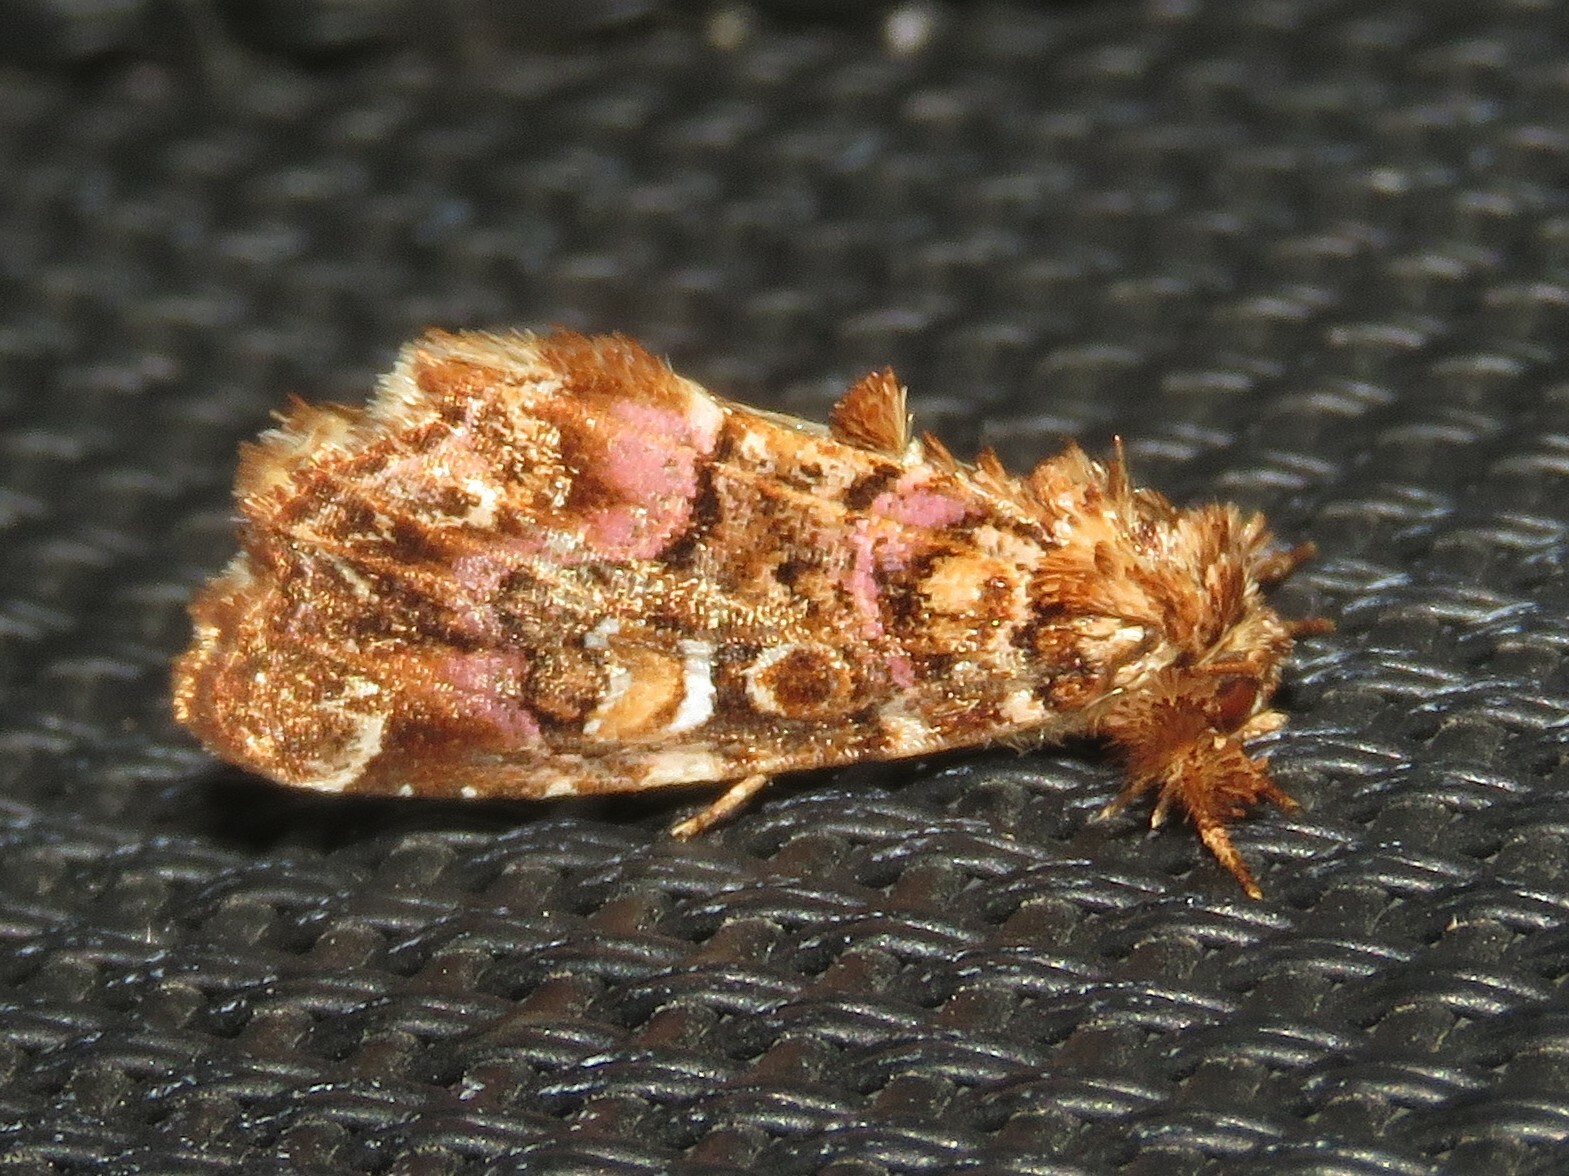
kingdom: Animalia
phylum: Arthropoda
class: Insecta
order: Lepidoptera
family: Noctuidae
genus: Callopistria
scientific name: Callopistria mollissima
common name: Pink-shaded fern moth
